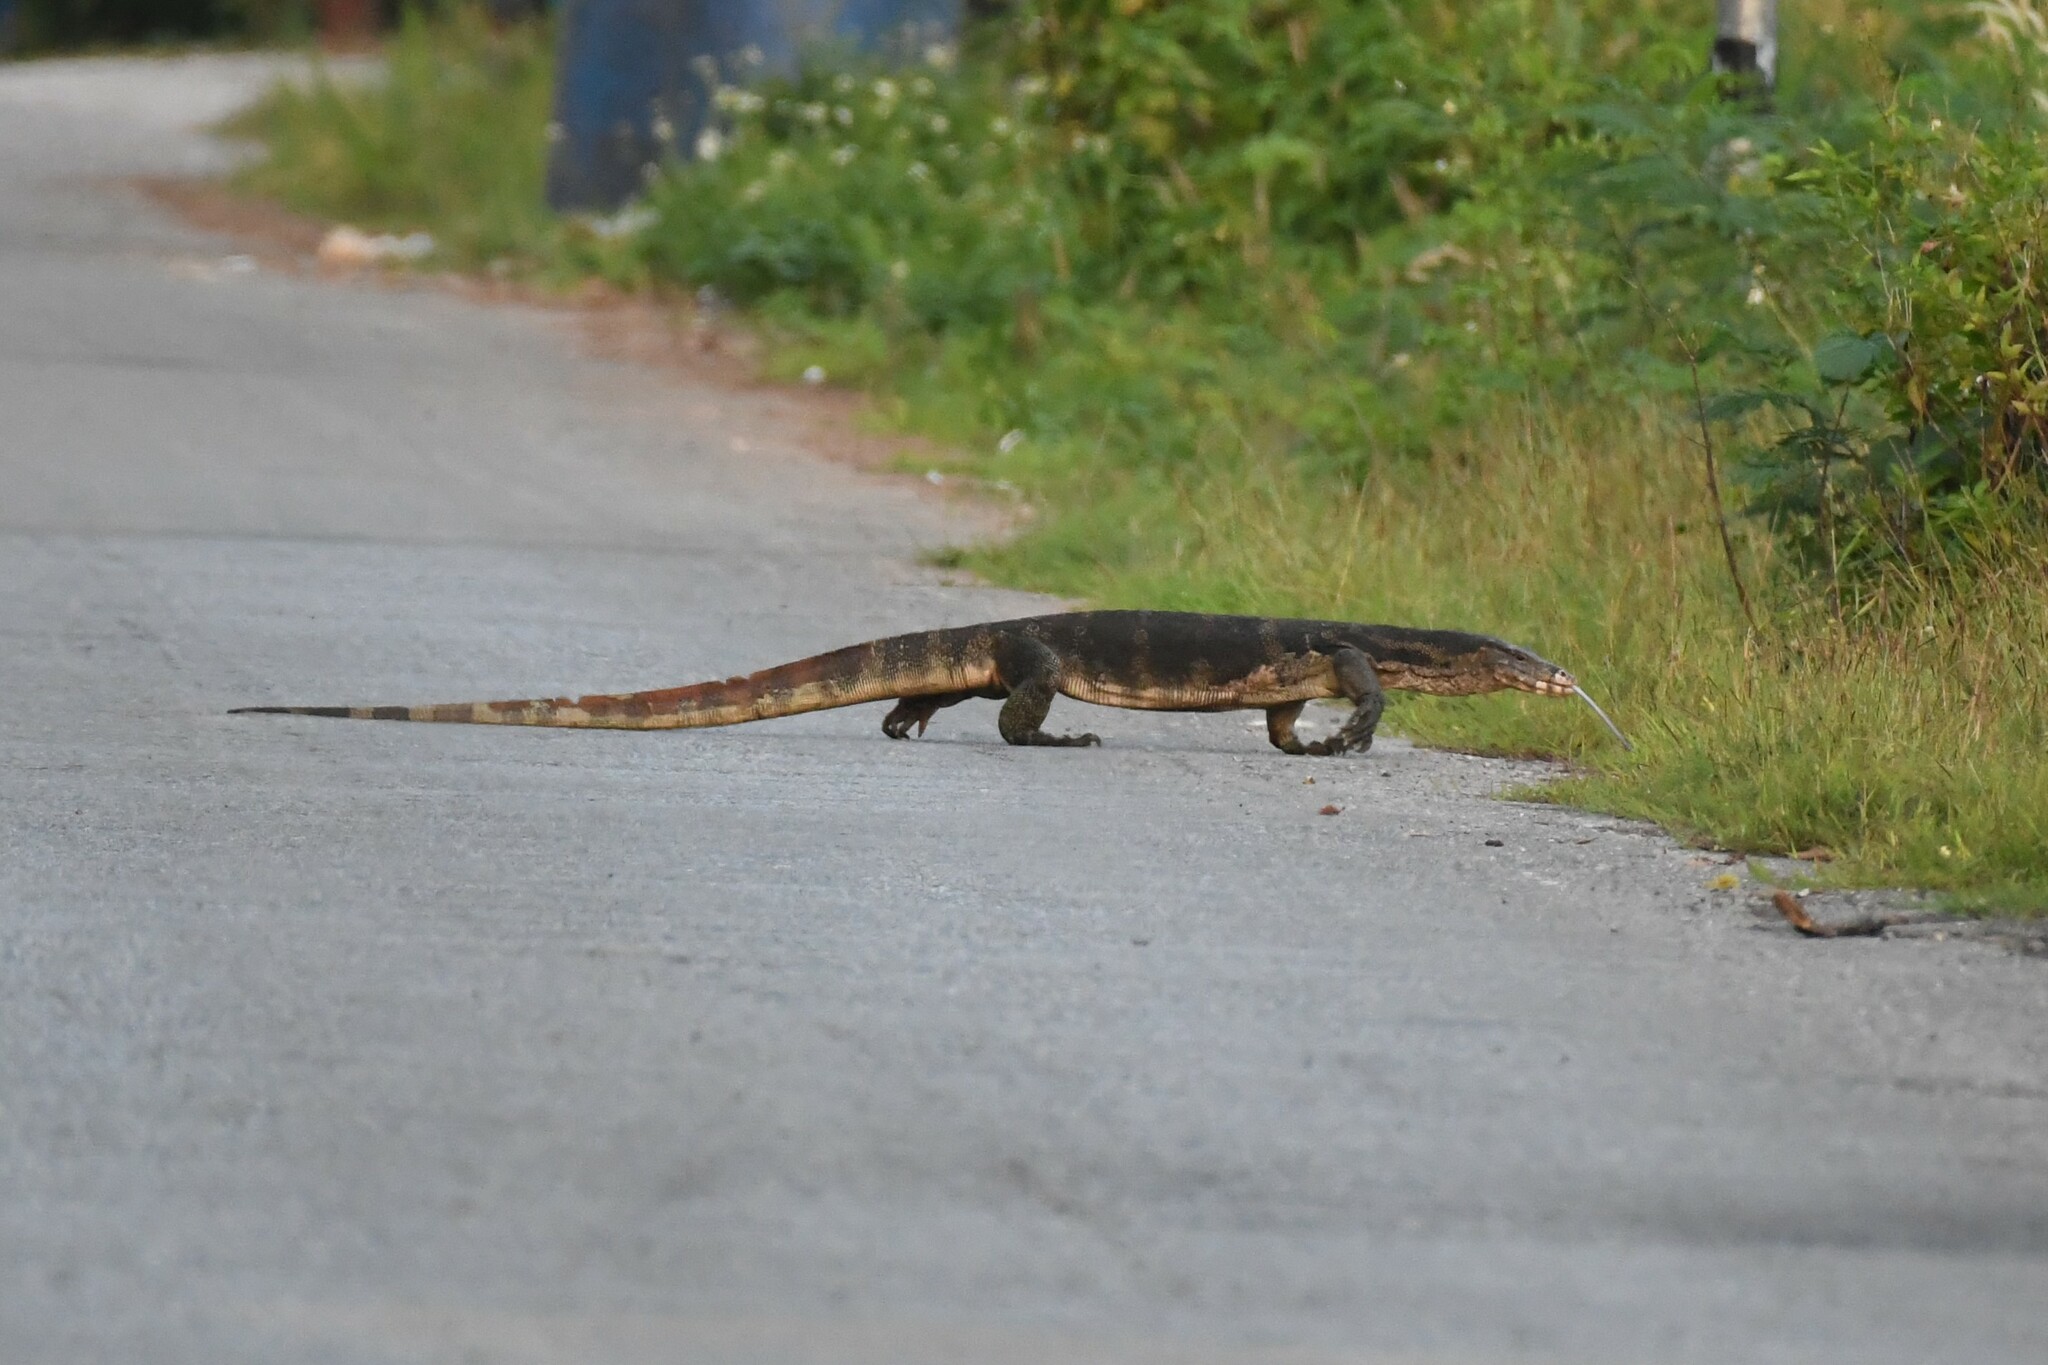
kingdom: Animalia
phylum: Chordata
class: Squamata
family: Varanidae
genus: Varanus
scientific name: Varanus salvator
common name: Common water monitor
